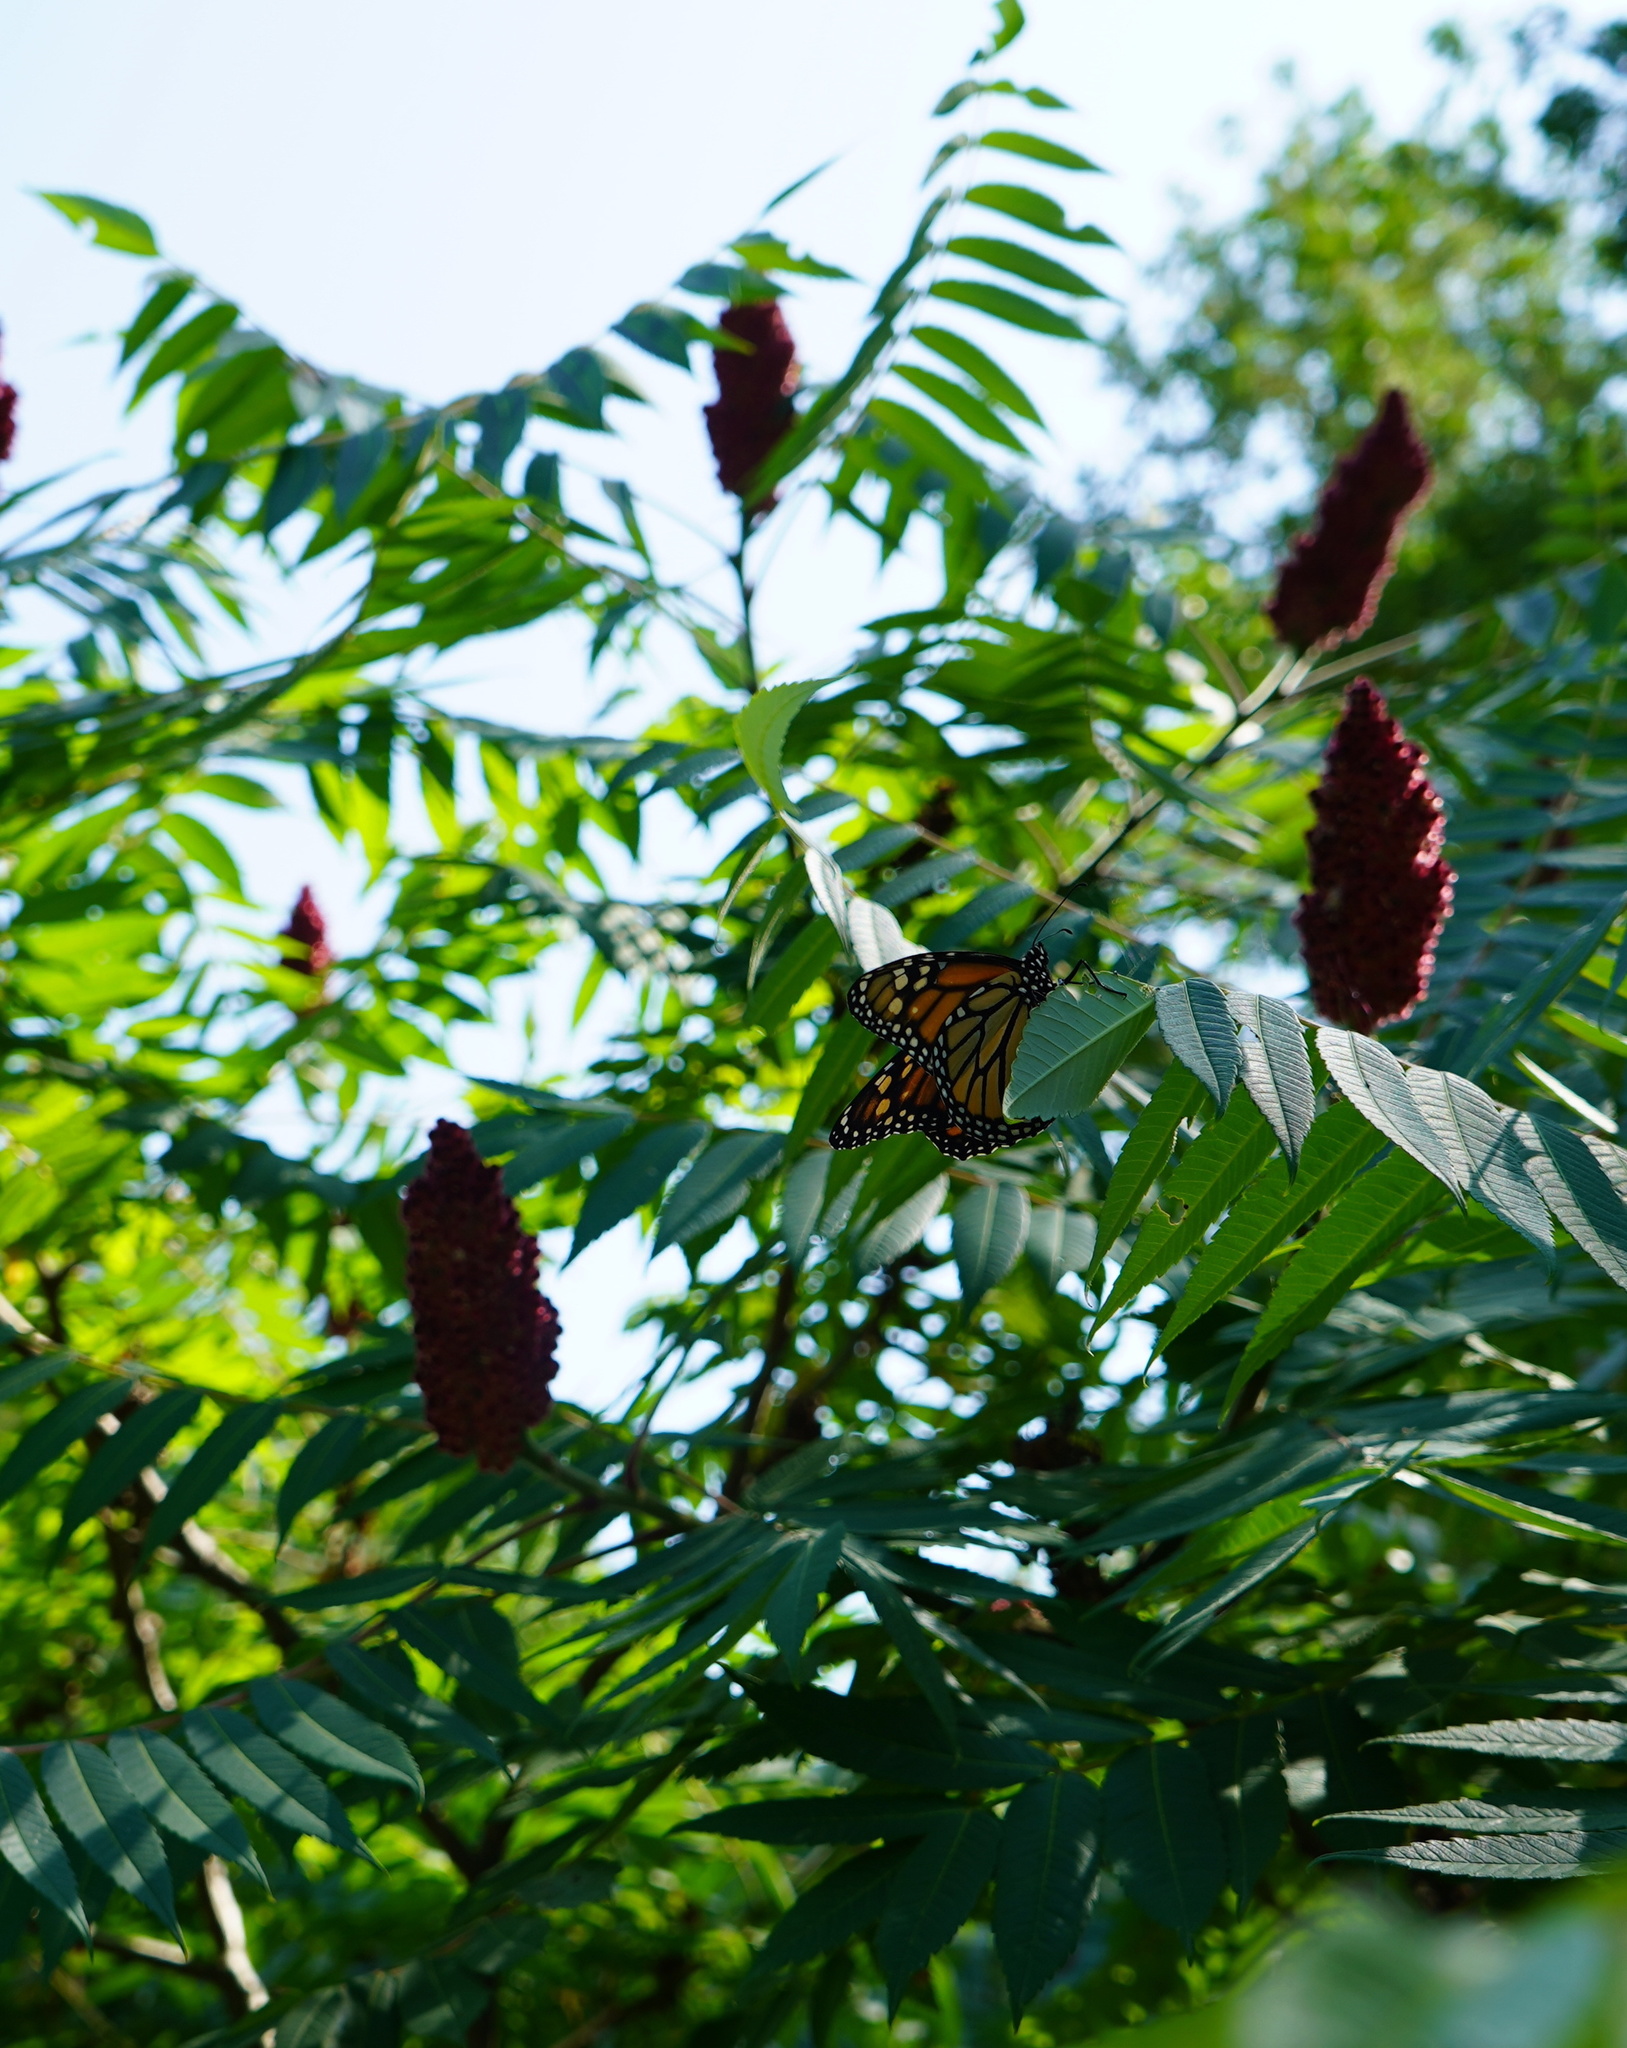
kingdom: Animalia
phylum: Arthropoda
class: Insecta
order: Lepidoptera
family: Nymphalidae
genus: Danaus
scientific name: Danaus plexippus
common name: Monarch
